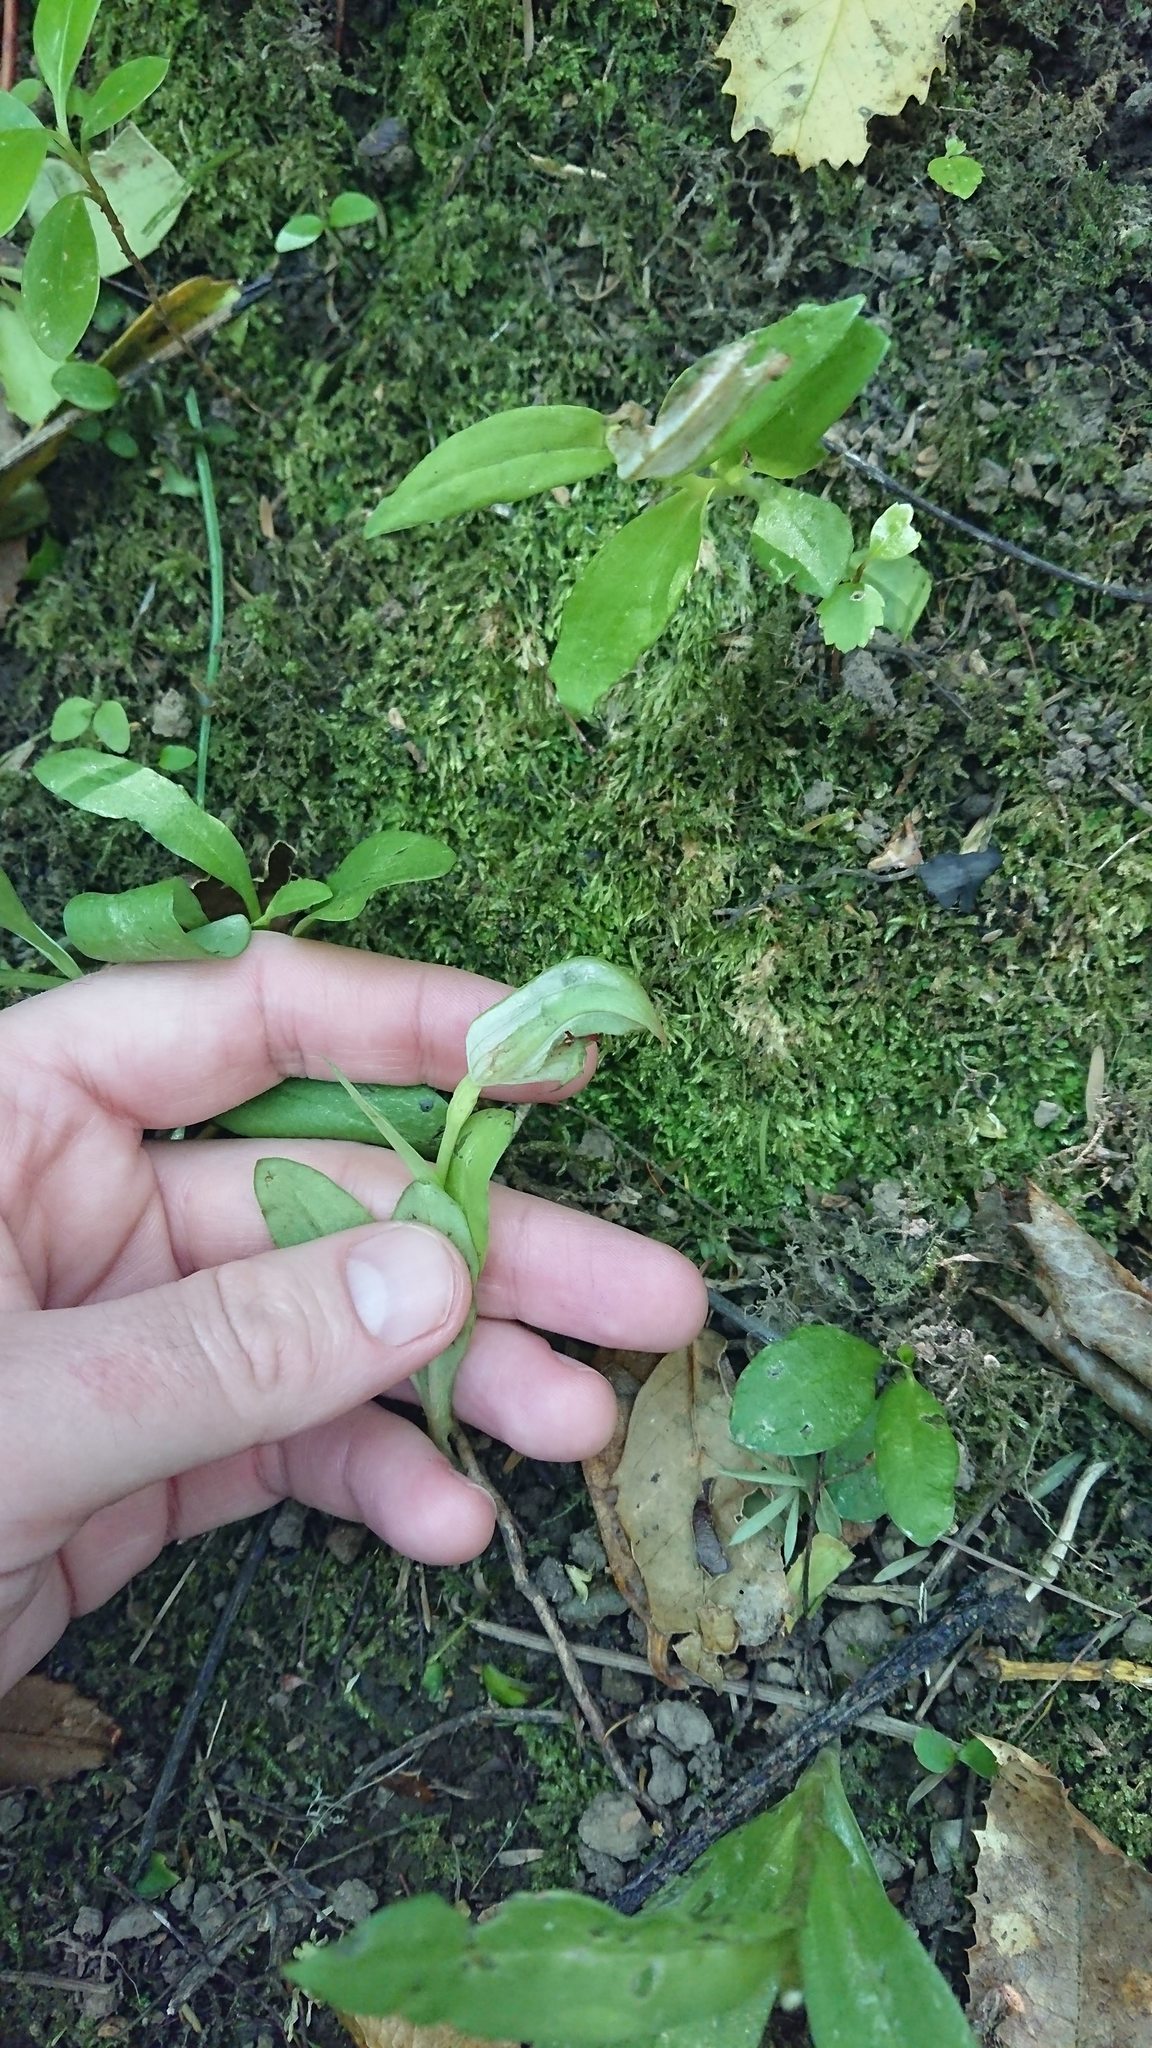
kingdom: Plantae
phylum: Tracheophyta
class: Liliopsida
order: Asparagales
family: Orchidaceae
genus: Pterostylis
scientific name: Pterostylis areolata
